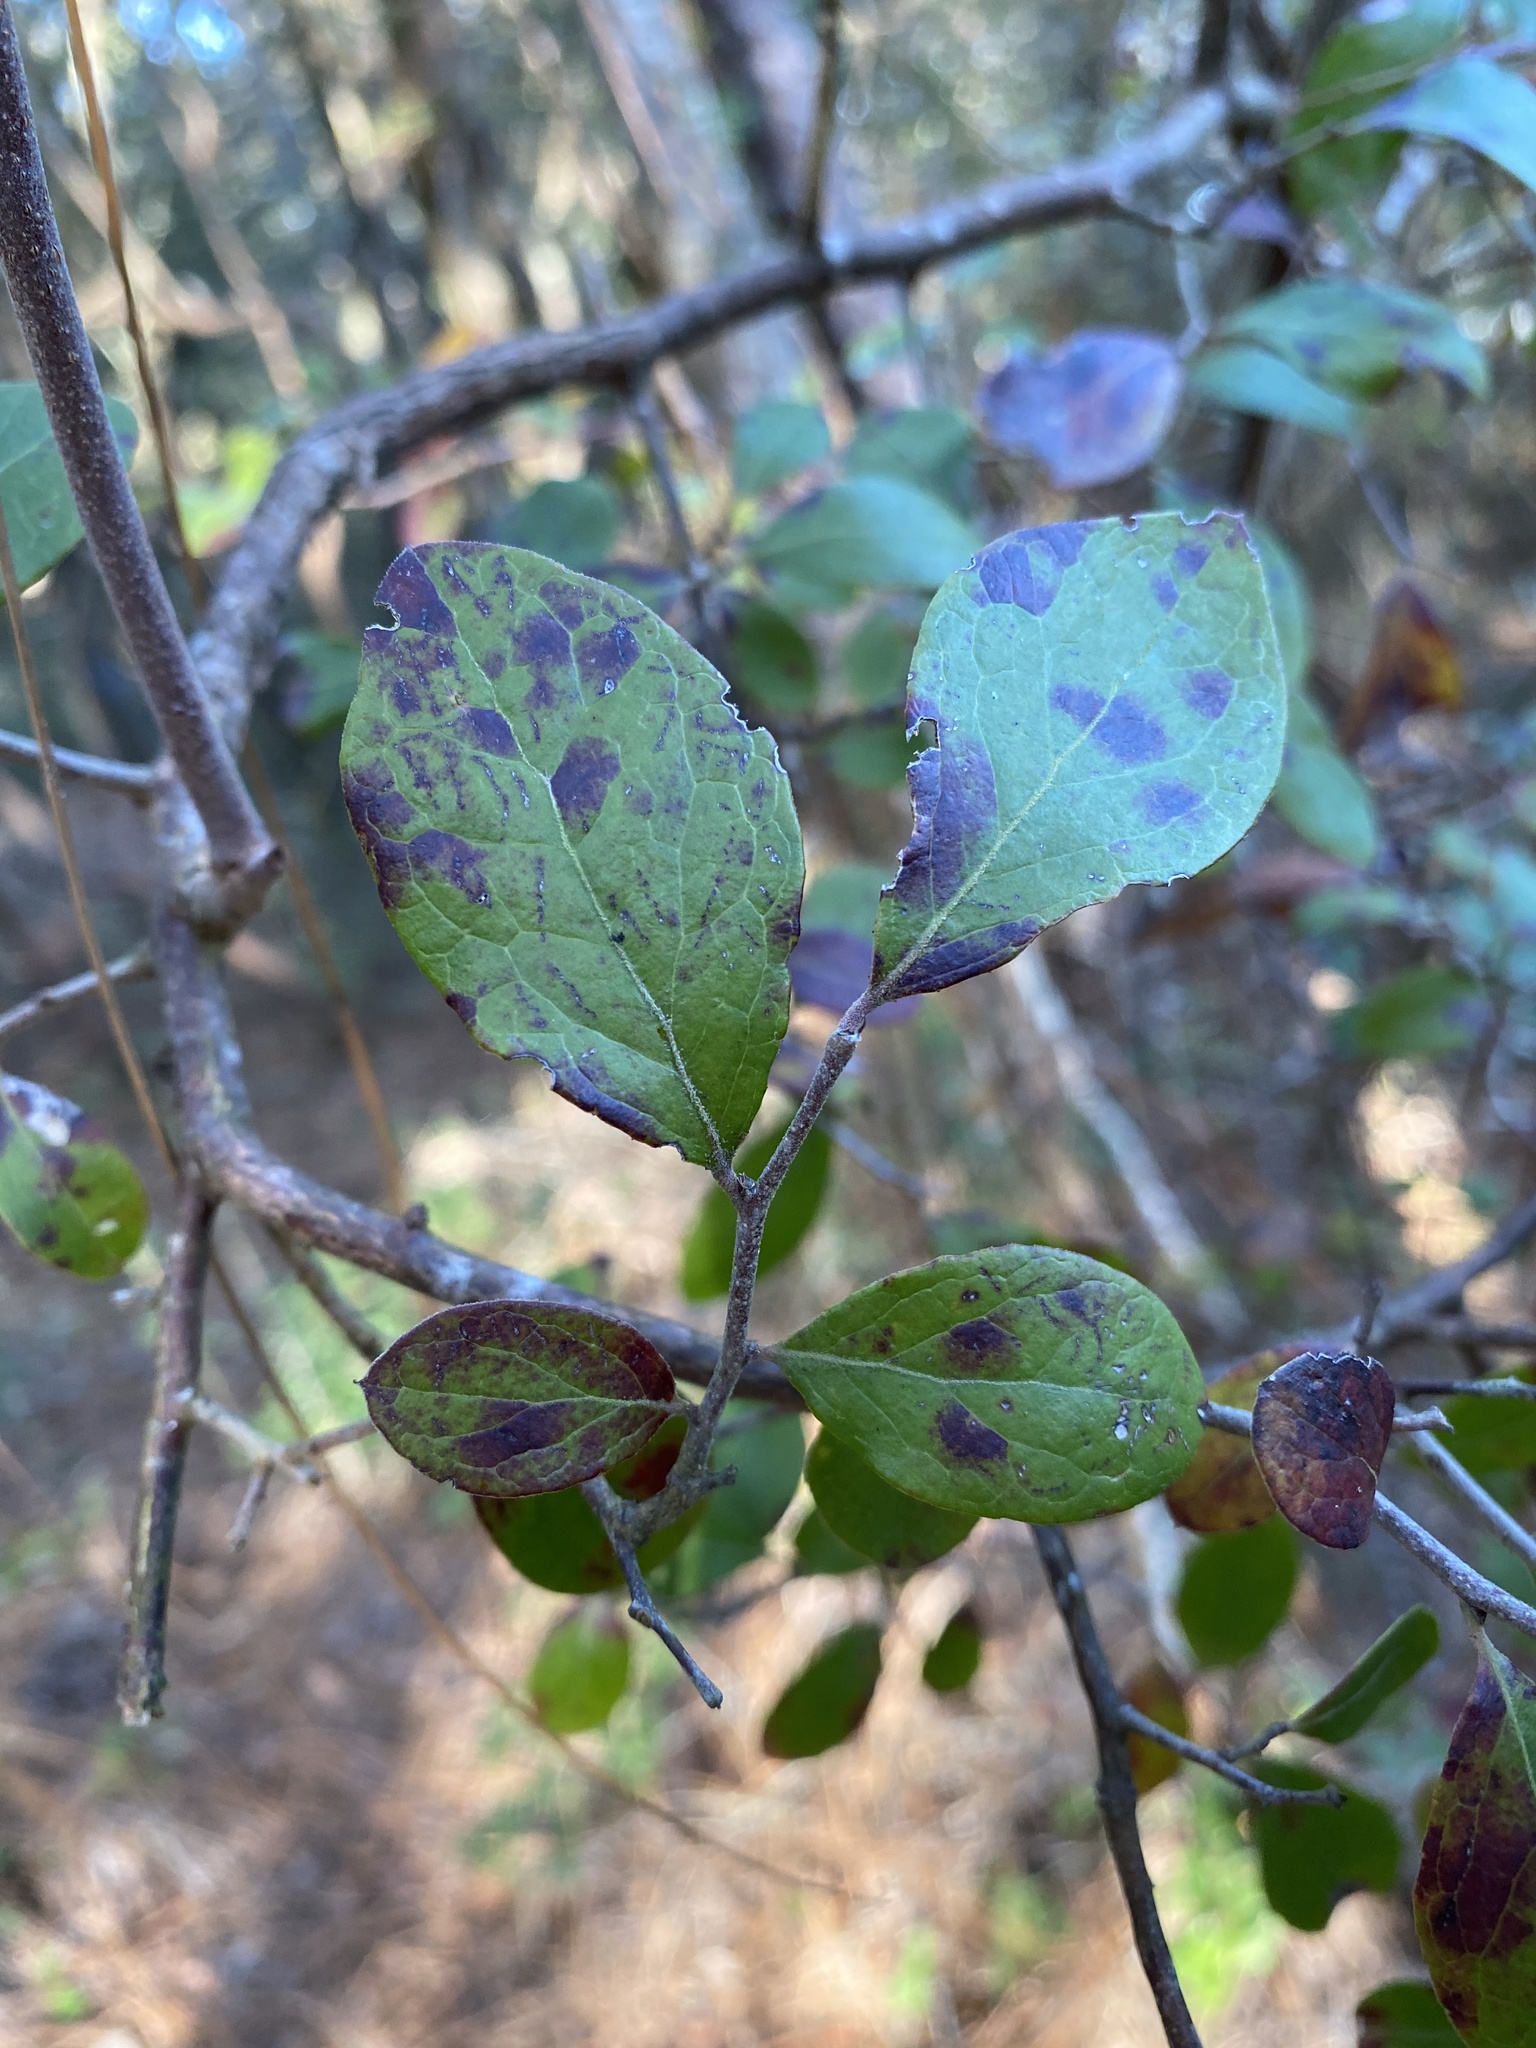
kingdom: Plantae
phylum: Tracheophyta
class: Magnoliopsida
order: Ericales
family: Ericaceae
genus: Vaccinium
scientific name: Vaccinium arboreum
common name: Farkleberry
